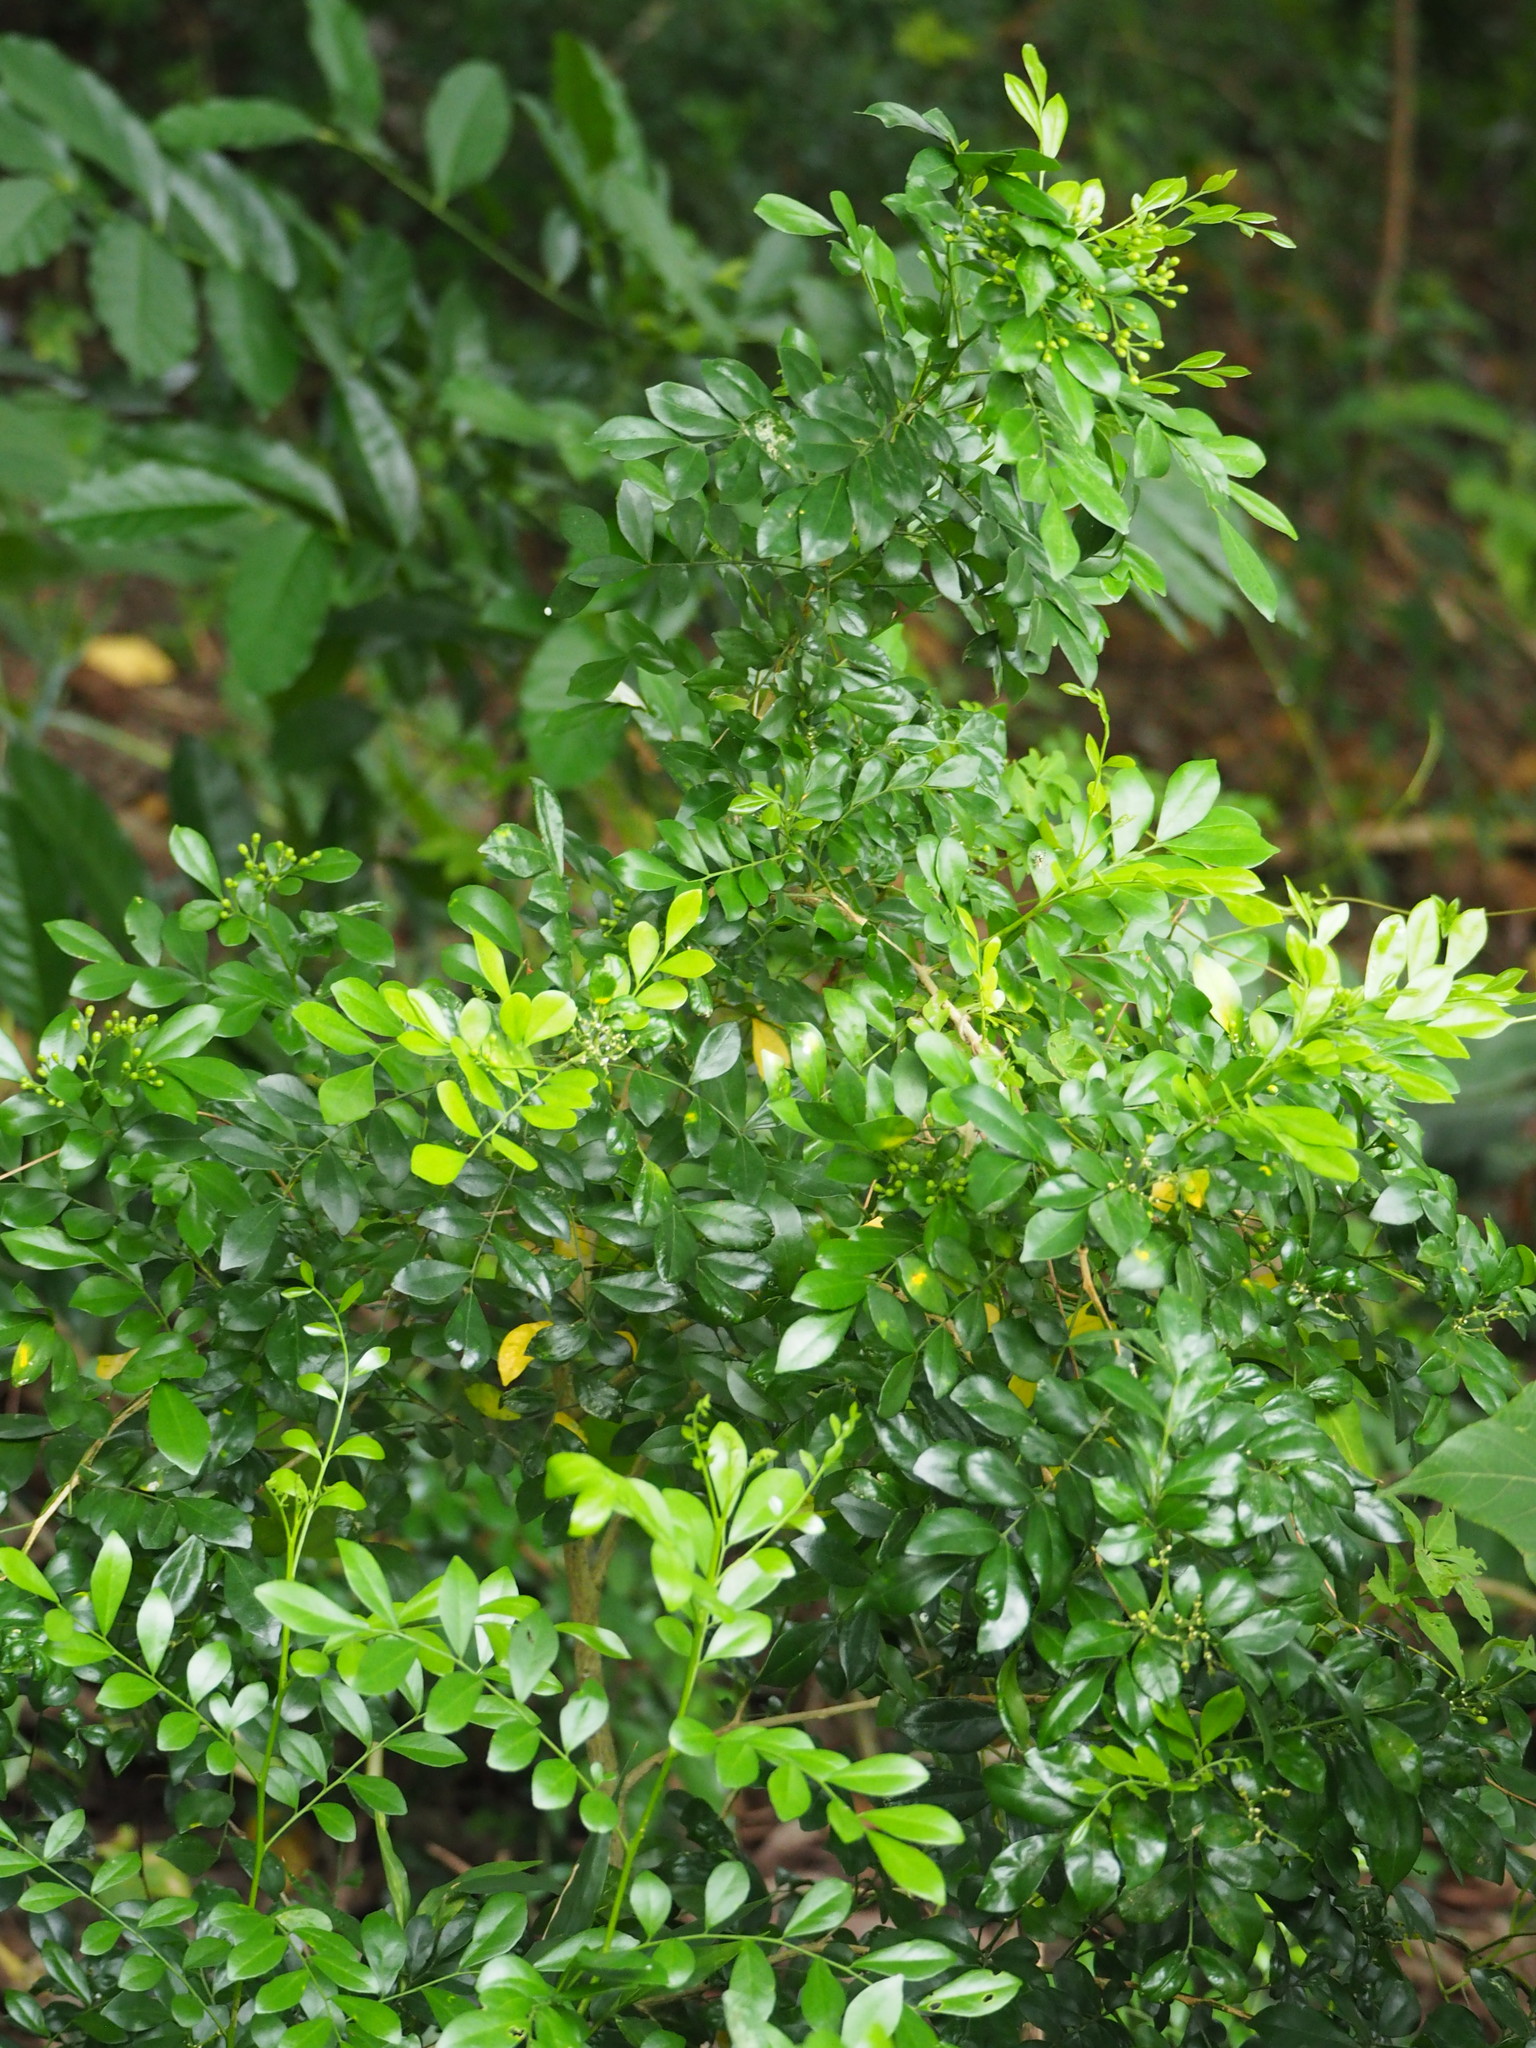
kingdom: Plantae
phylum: Tracheophyta
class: Magnoliopsida
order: Sapindales
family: Rutaceae
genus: Murraya
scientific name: Murraya paniculata
